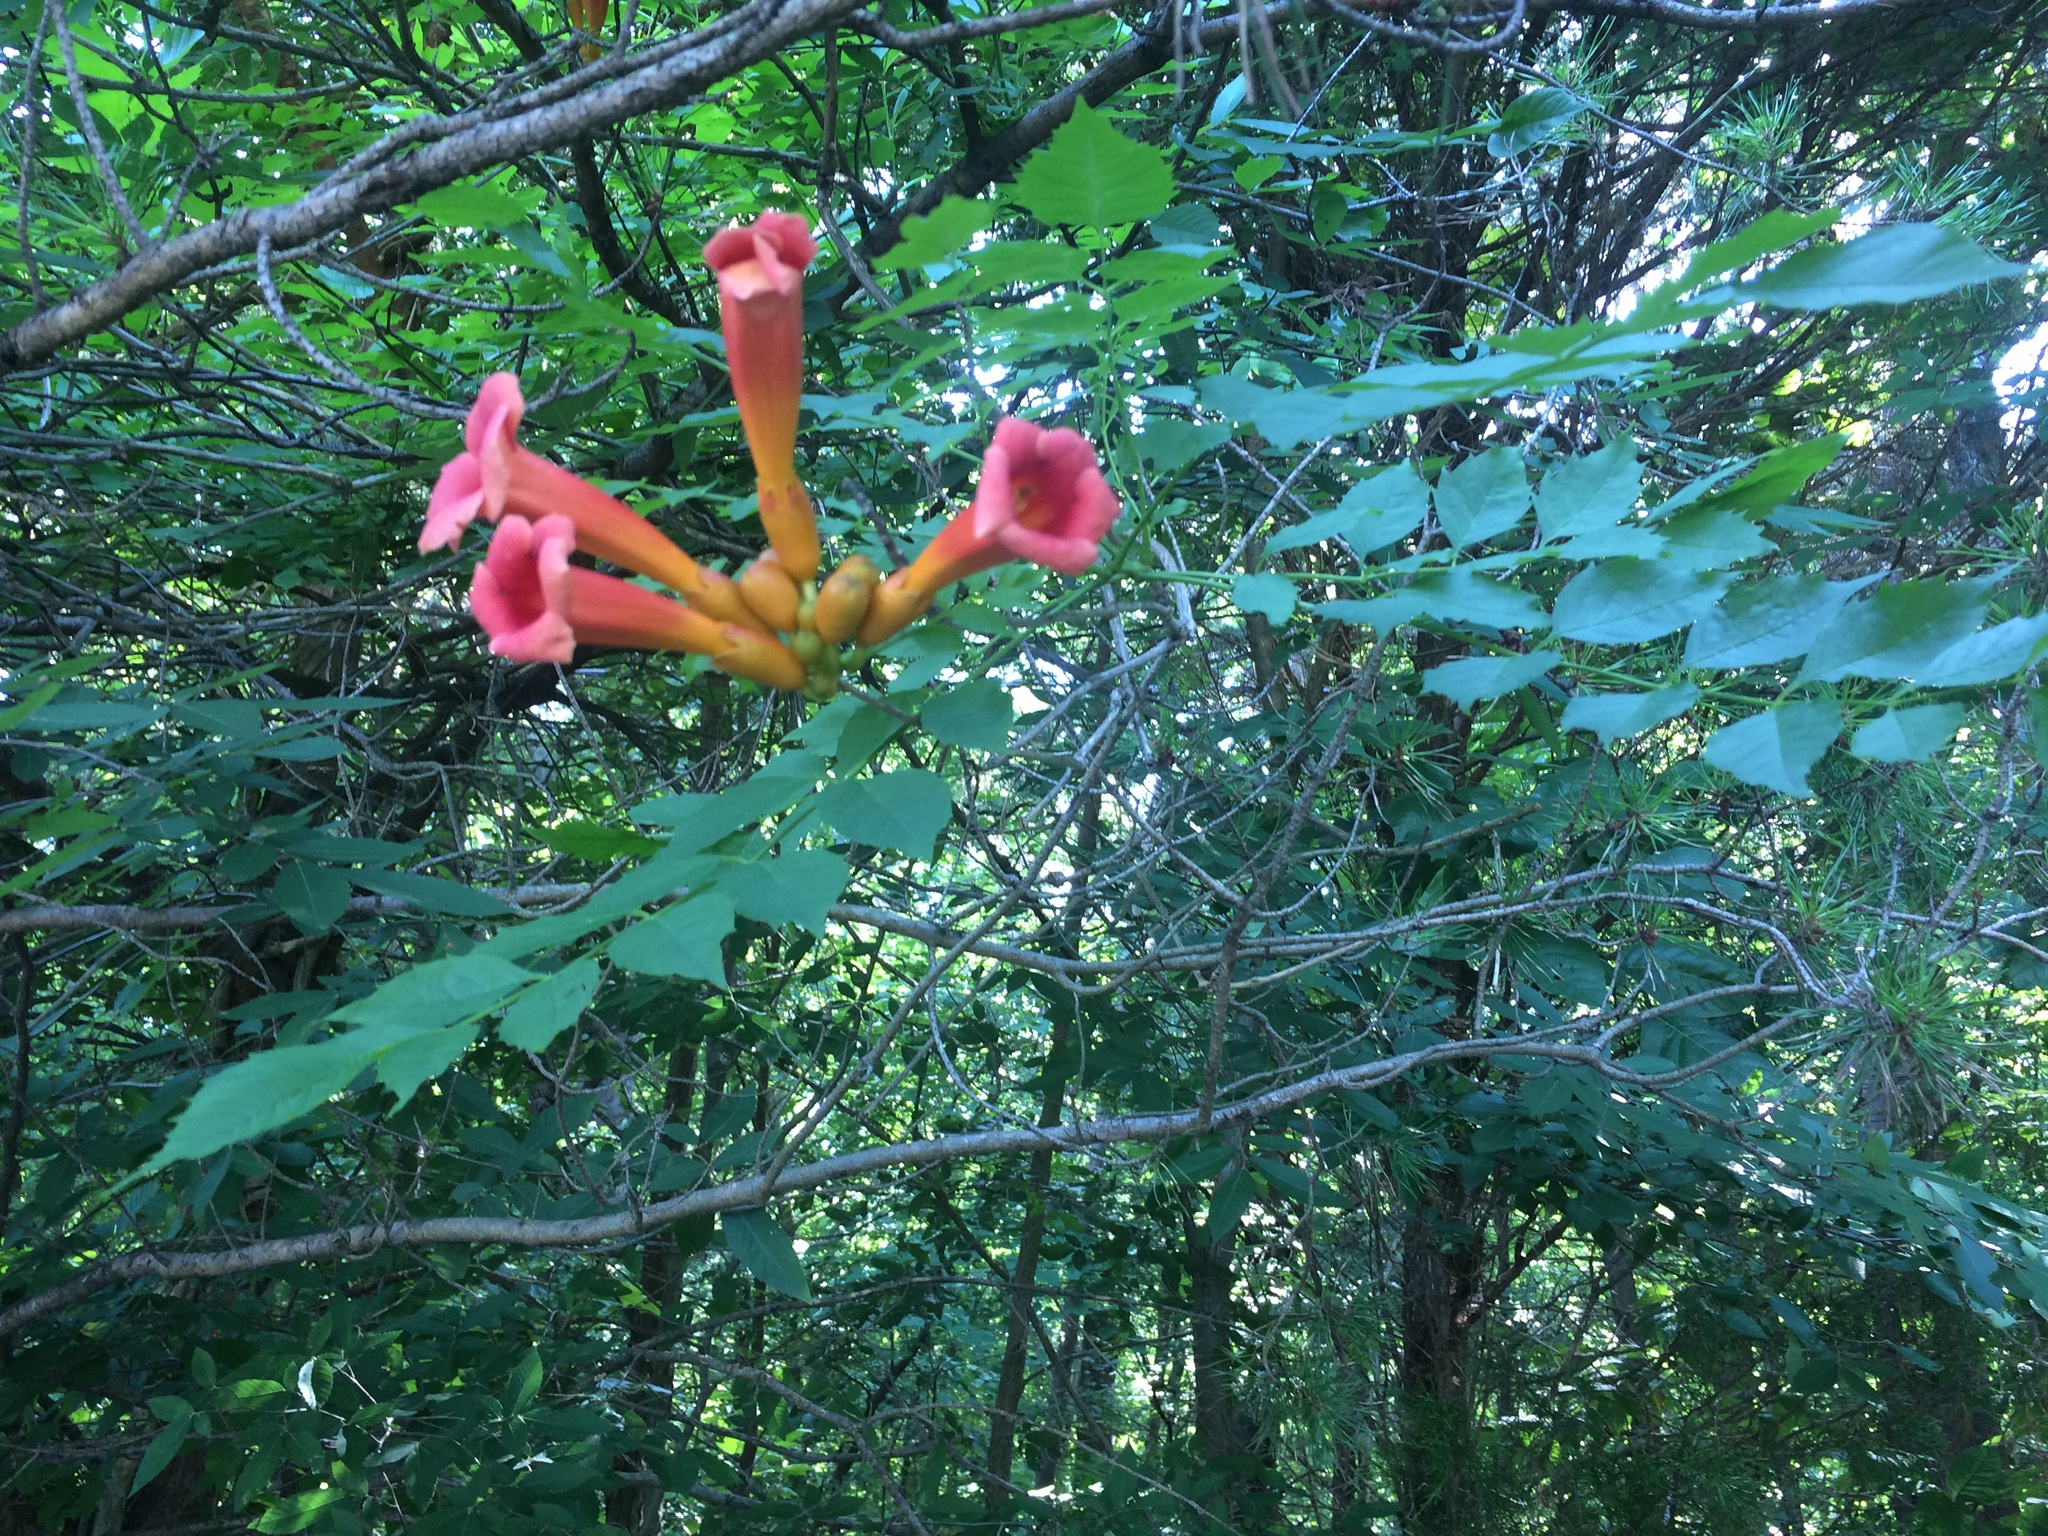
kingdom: Plantae
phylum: Tracheophyta
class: Magnoliopsida
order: Lamiales
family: Bignoniaceae
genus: Campsis
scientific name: Campsis radicans
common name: Trumpet-creeper
